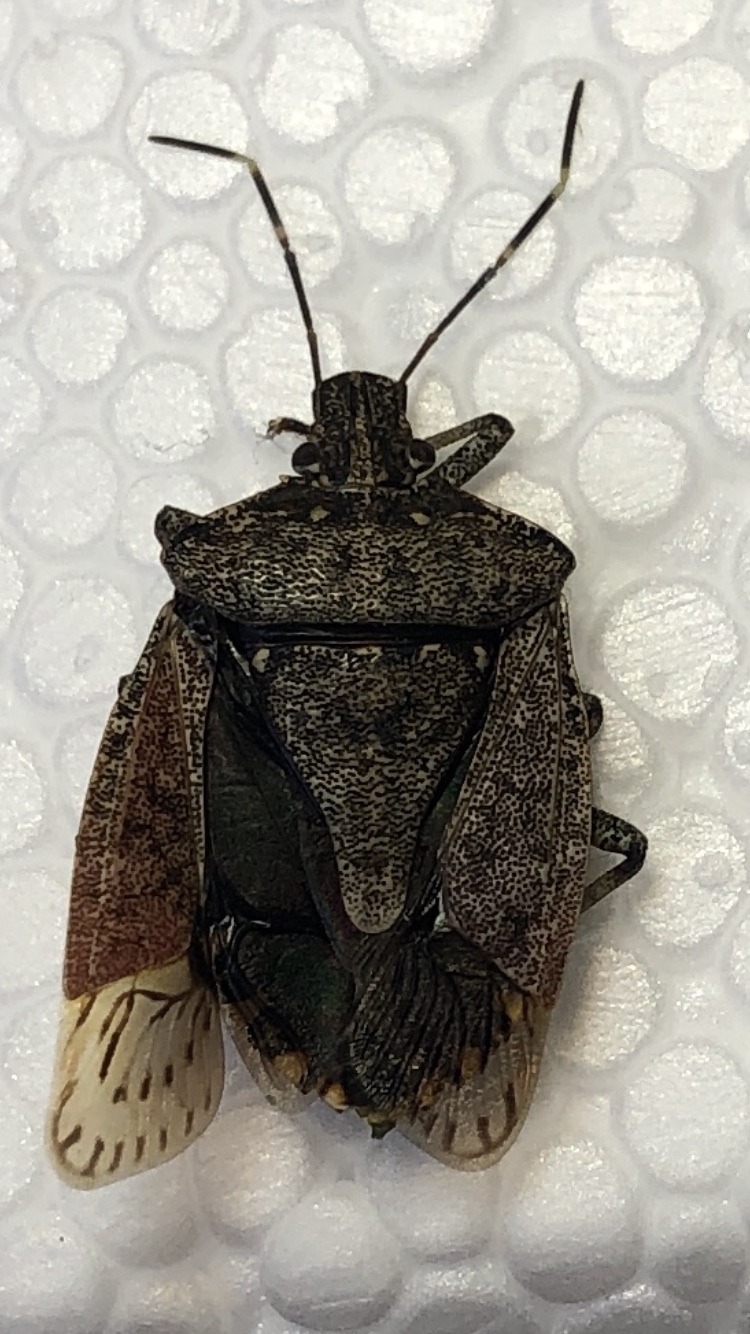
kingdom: Animalia
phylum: Arthropoda
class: Insecta
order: Hemiptera
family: Pentatomidae
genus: Halyomorpha
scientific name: Halyomorpha halys
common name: Brown marmorated stink bug
